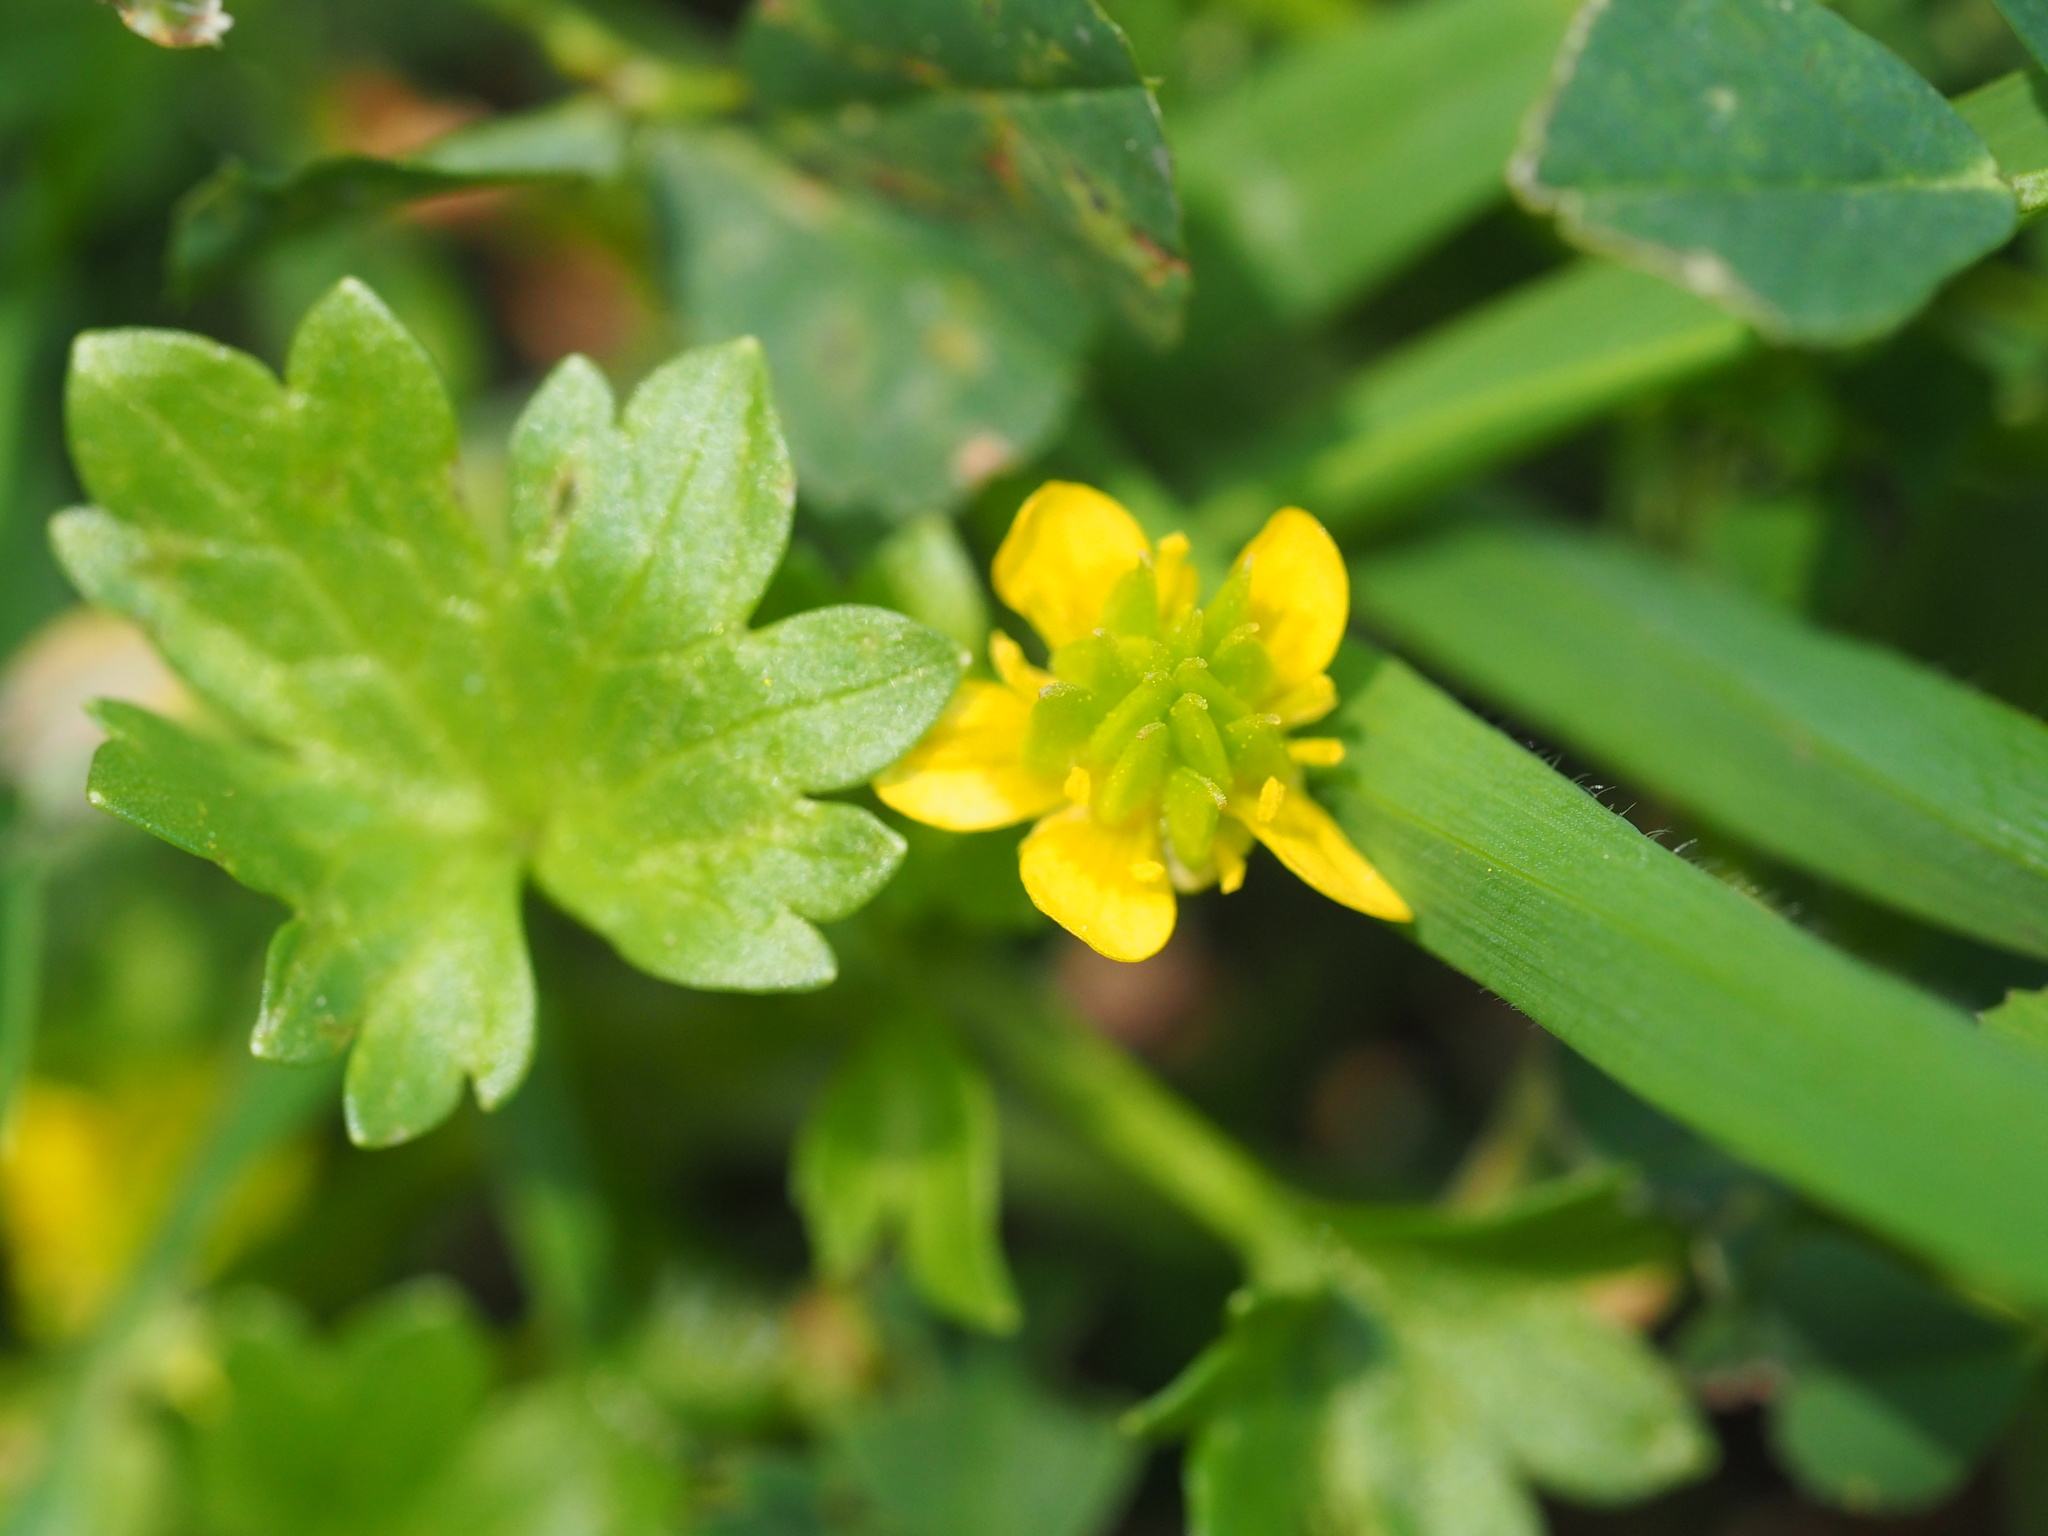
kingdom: Plantae
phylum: Tracheophyta
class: Magnoliopsida
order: Ranunculales
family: Ranunculaceae
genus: Ranunculus
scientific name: Ranunculus muricatus
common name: Rough-fruited buttercup
